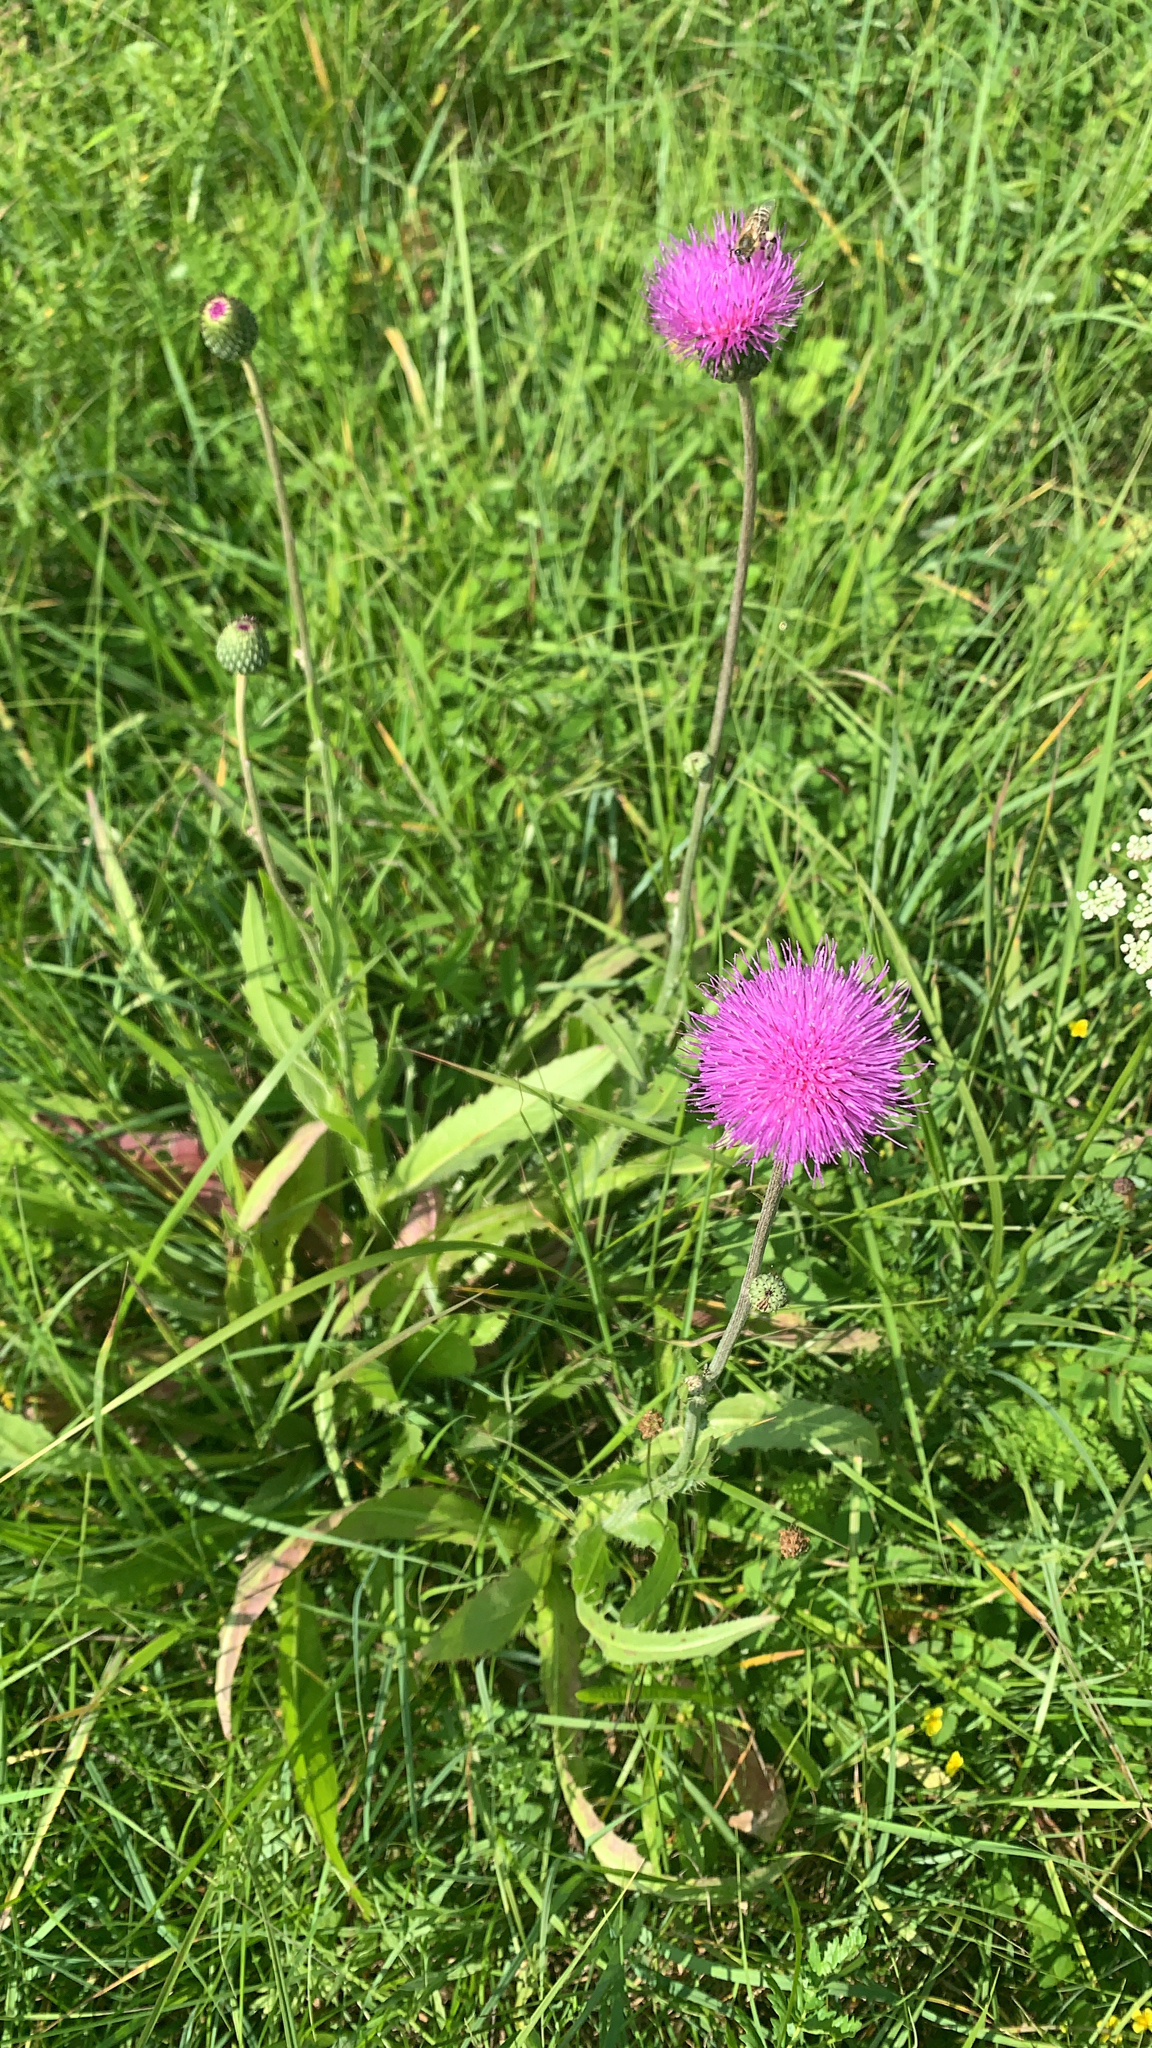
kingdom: Plantae
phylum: Tracheophyta
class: Magnoliopsida
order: Asterales
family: Asteraceae
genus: Cirsium
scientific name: Cirsium canum
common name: Queen anne's thistle
